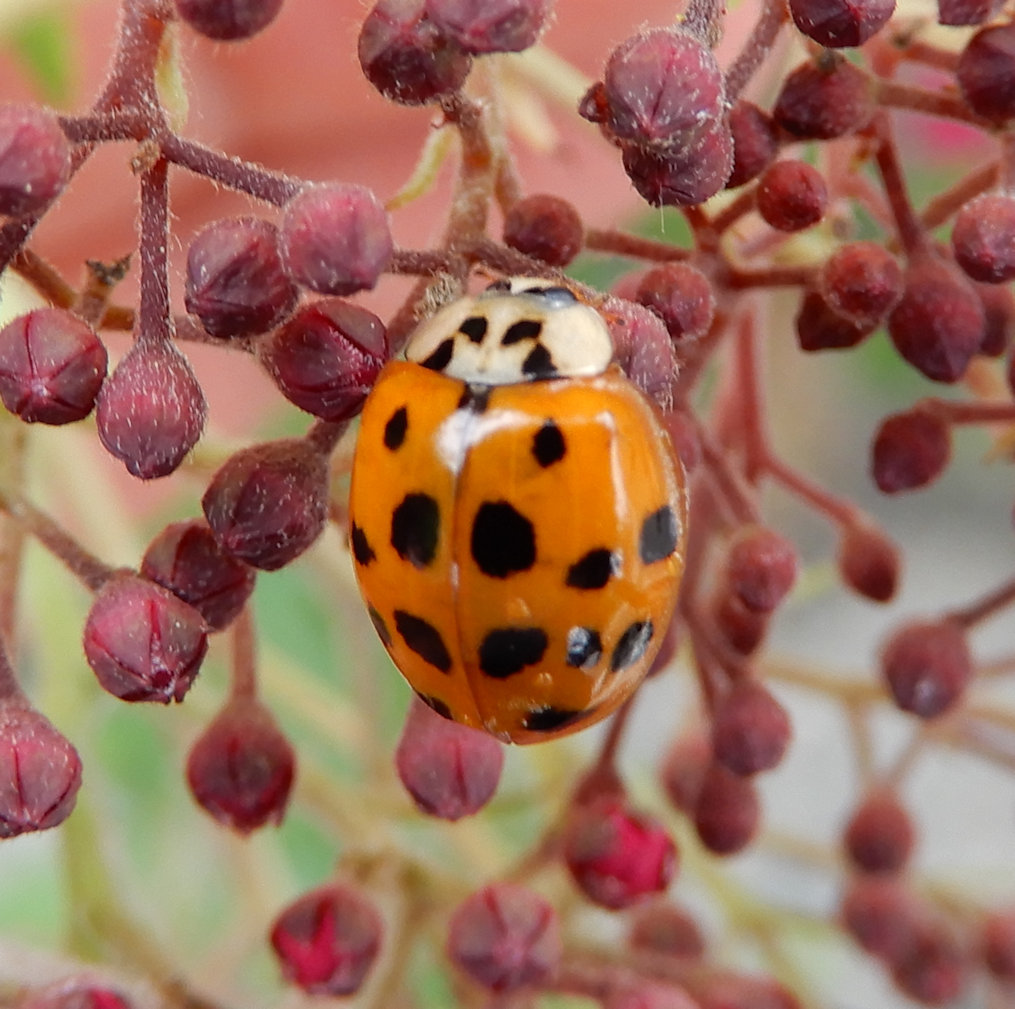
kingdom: Animalia
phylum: Arthropoda
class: Insecta
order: Coleoptera
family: Coccinellidae
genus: Harmonia
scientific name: Harmonia axyridis
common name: Harlequin ladybird
